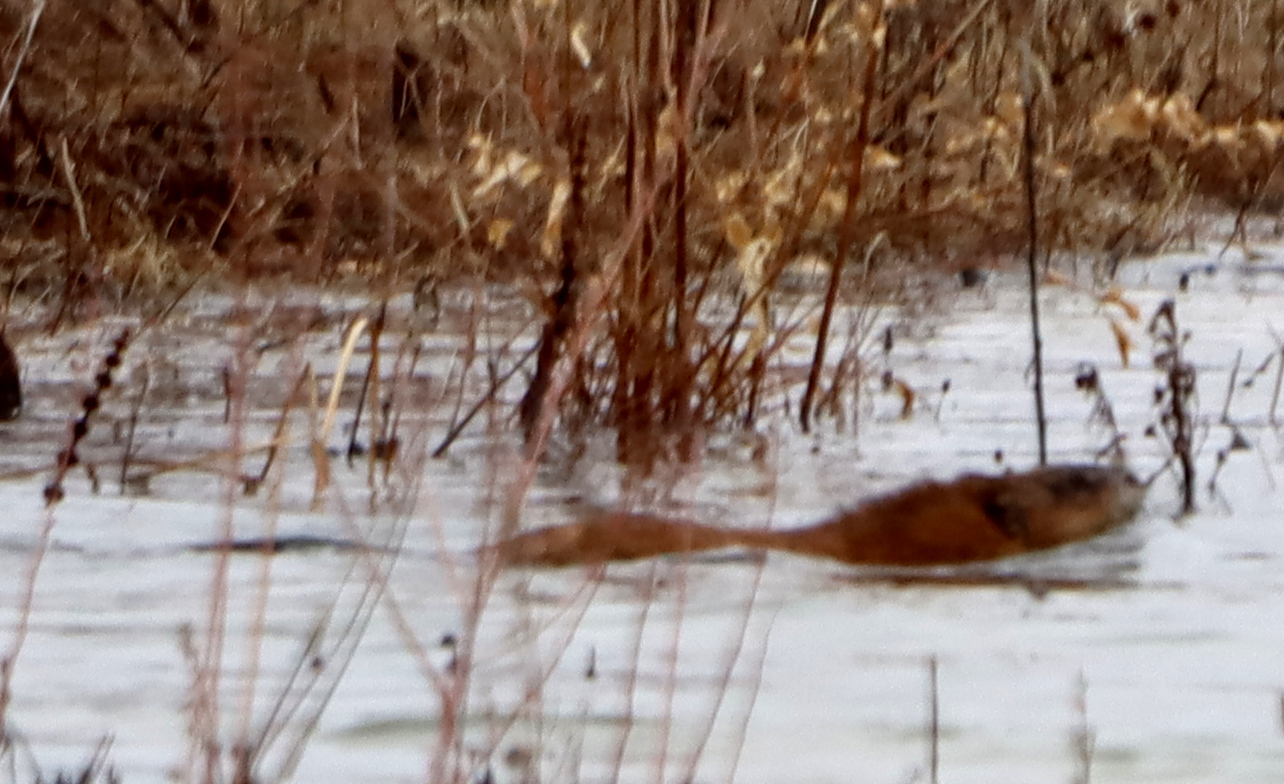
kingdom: Animalia
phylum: Chordata
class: Mammalia
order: Rodentia
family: Cricetidae
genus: Ondatra
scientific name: Ondatra zibethicus
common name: Muskrat
